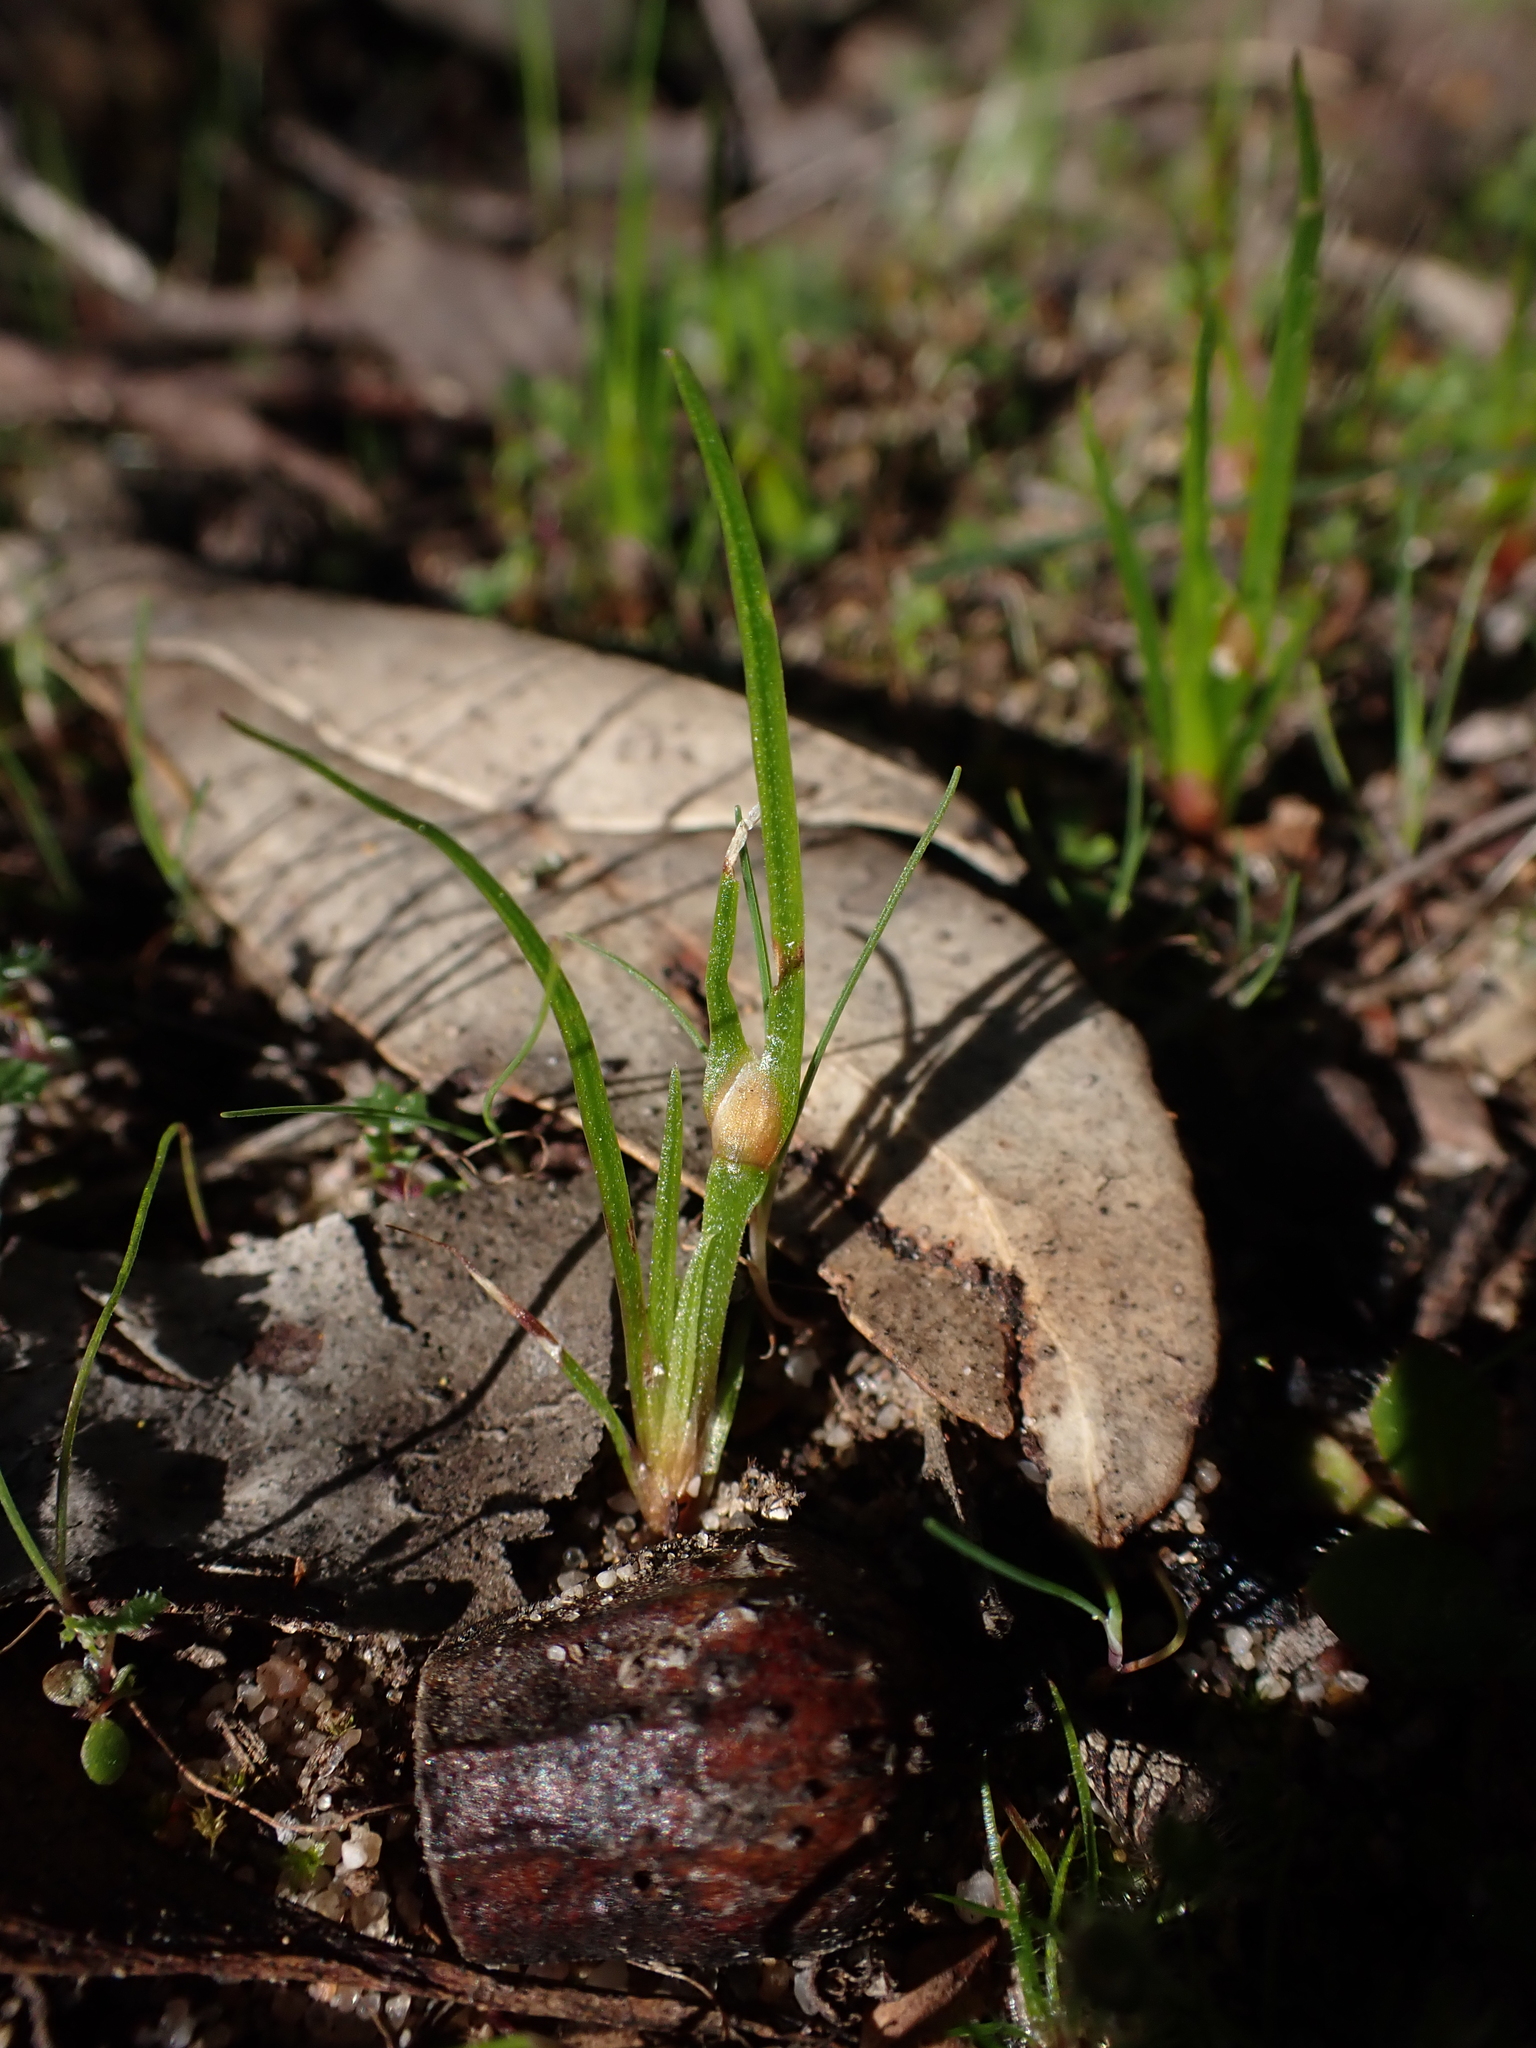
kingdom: Plantae
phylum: Tracheophyta
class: Liliopsida
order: Poales
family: Restionaceae
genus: Centrolepis
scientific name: Centrolepis aristata
